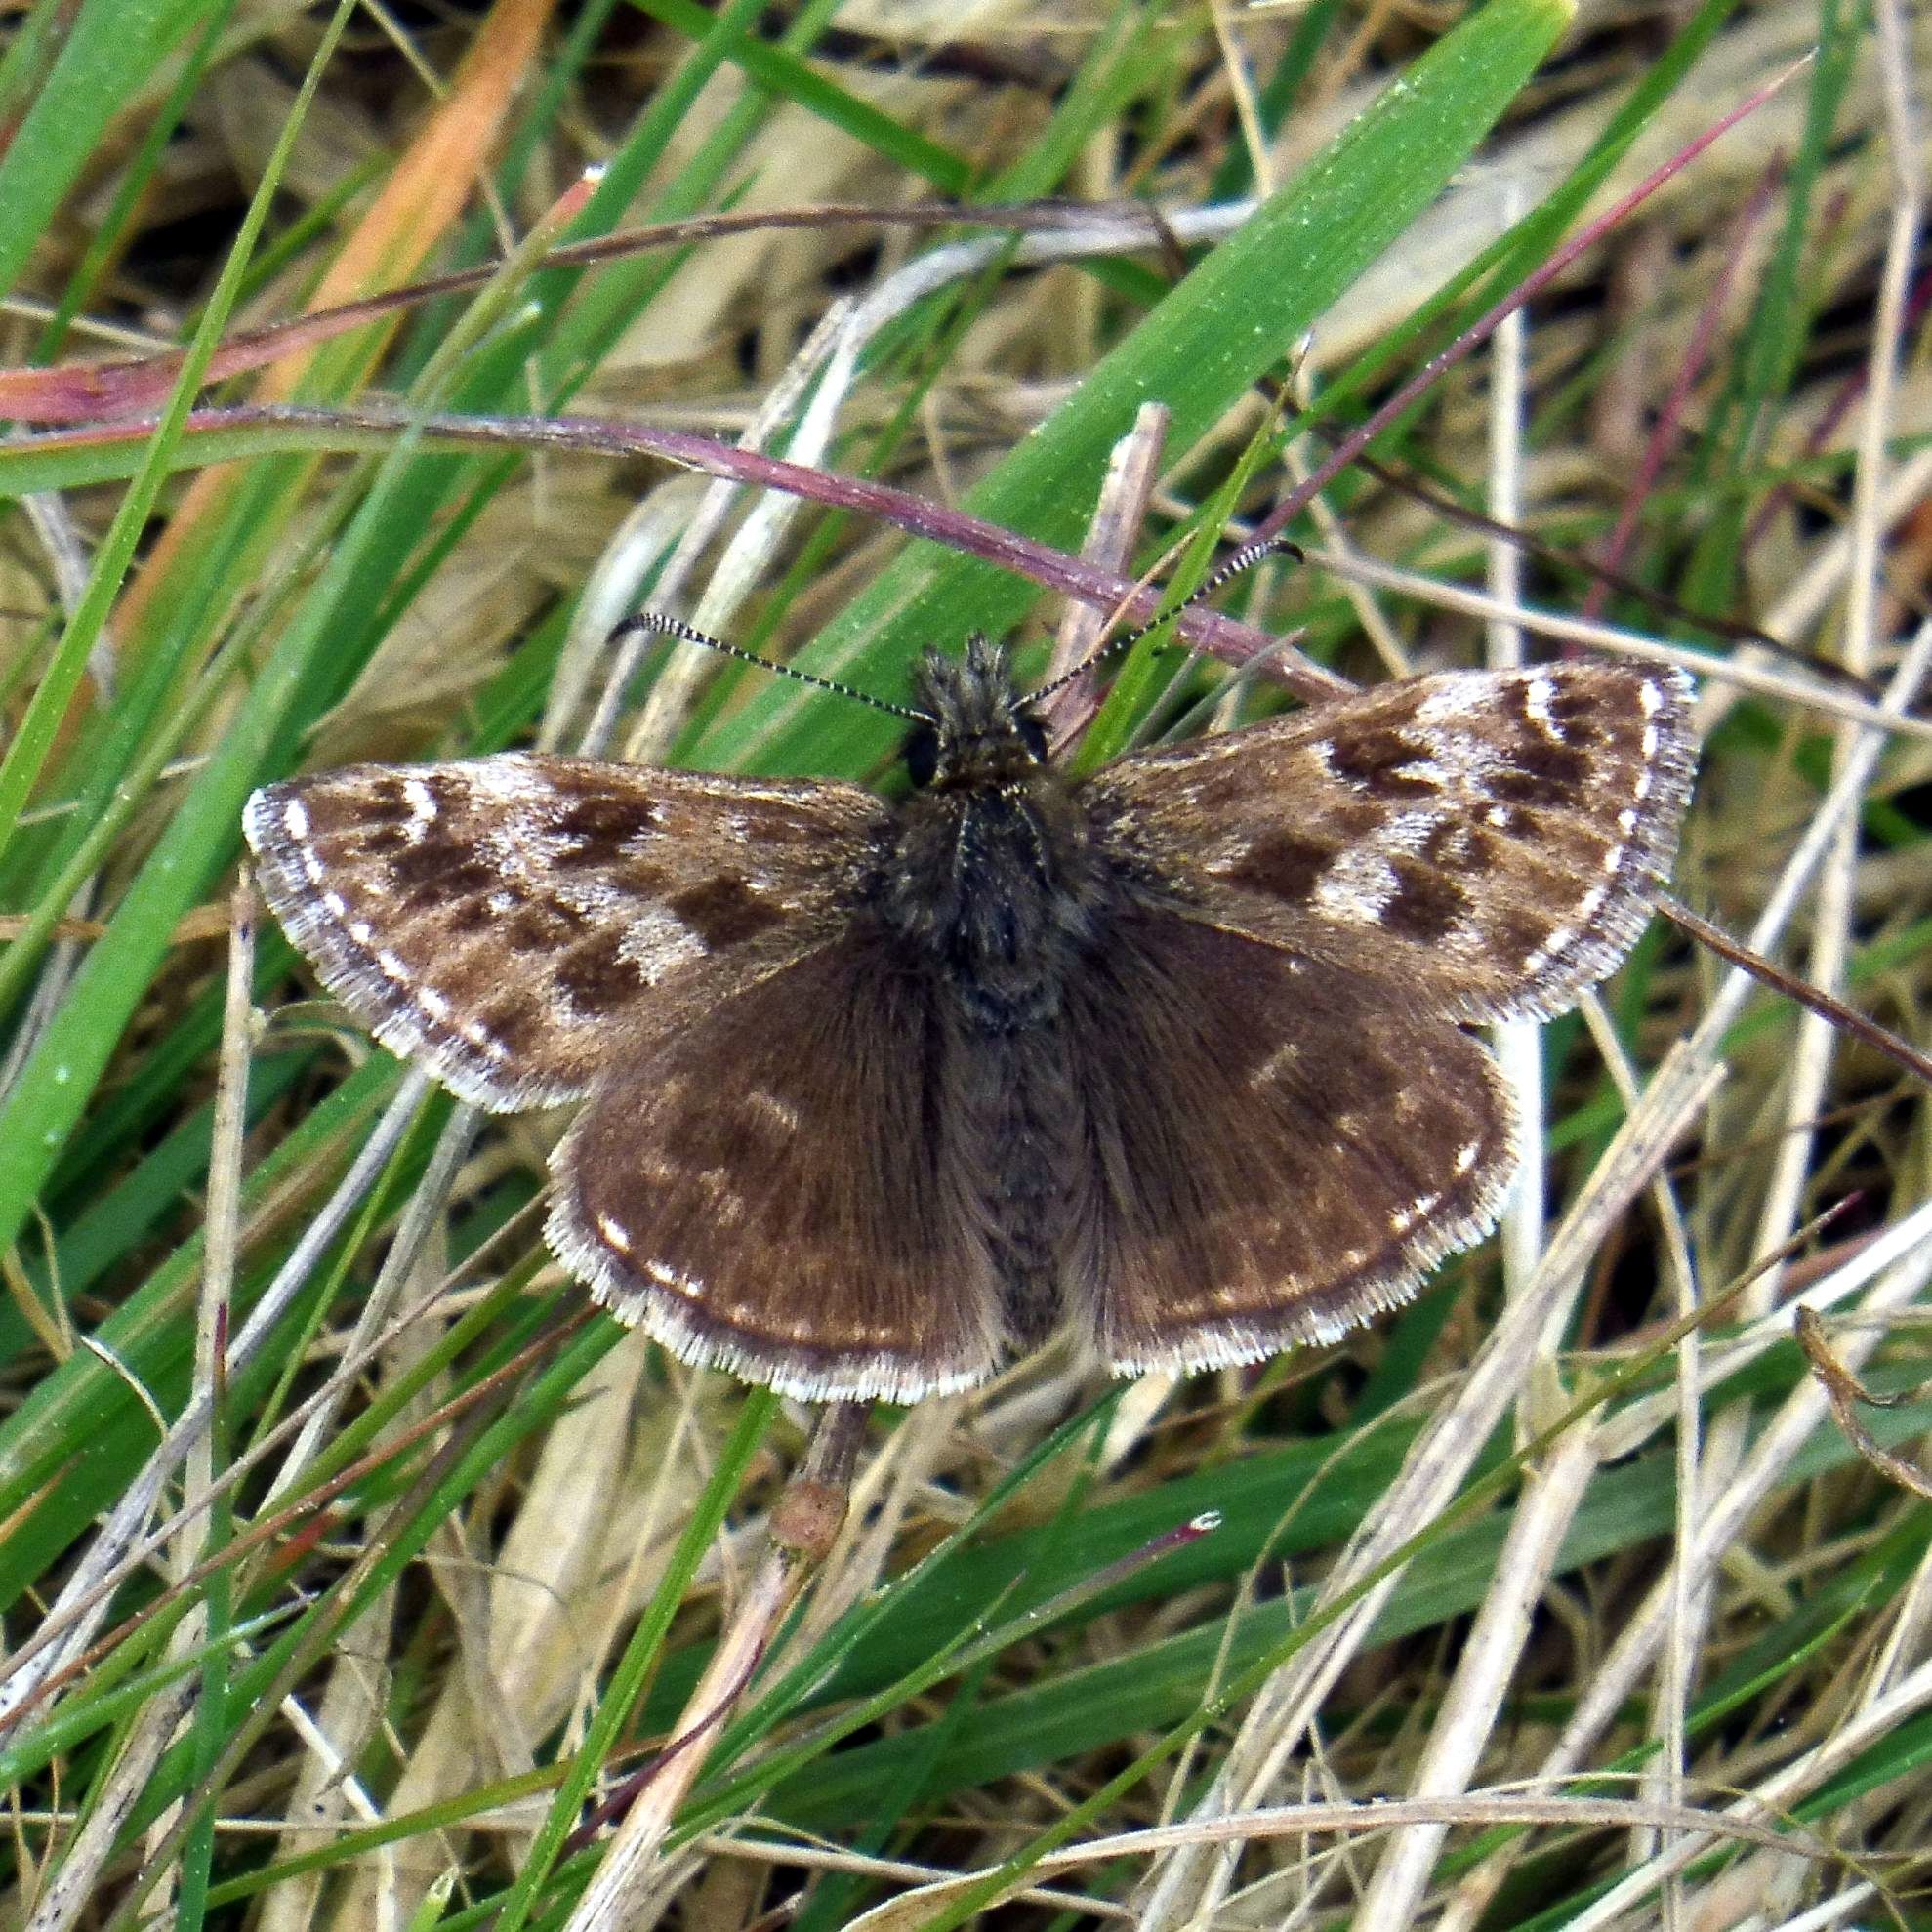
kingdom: Animalia
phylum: Arthropoda
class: Insecta
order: Lepidoptera
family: Hesperiidae
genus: Erynnis
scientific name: Erynnis tages
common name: Dingy skipper
